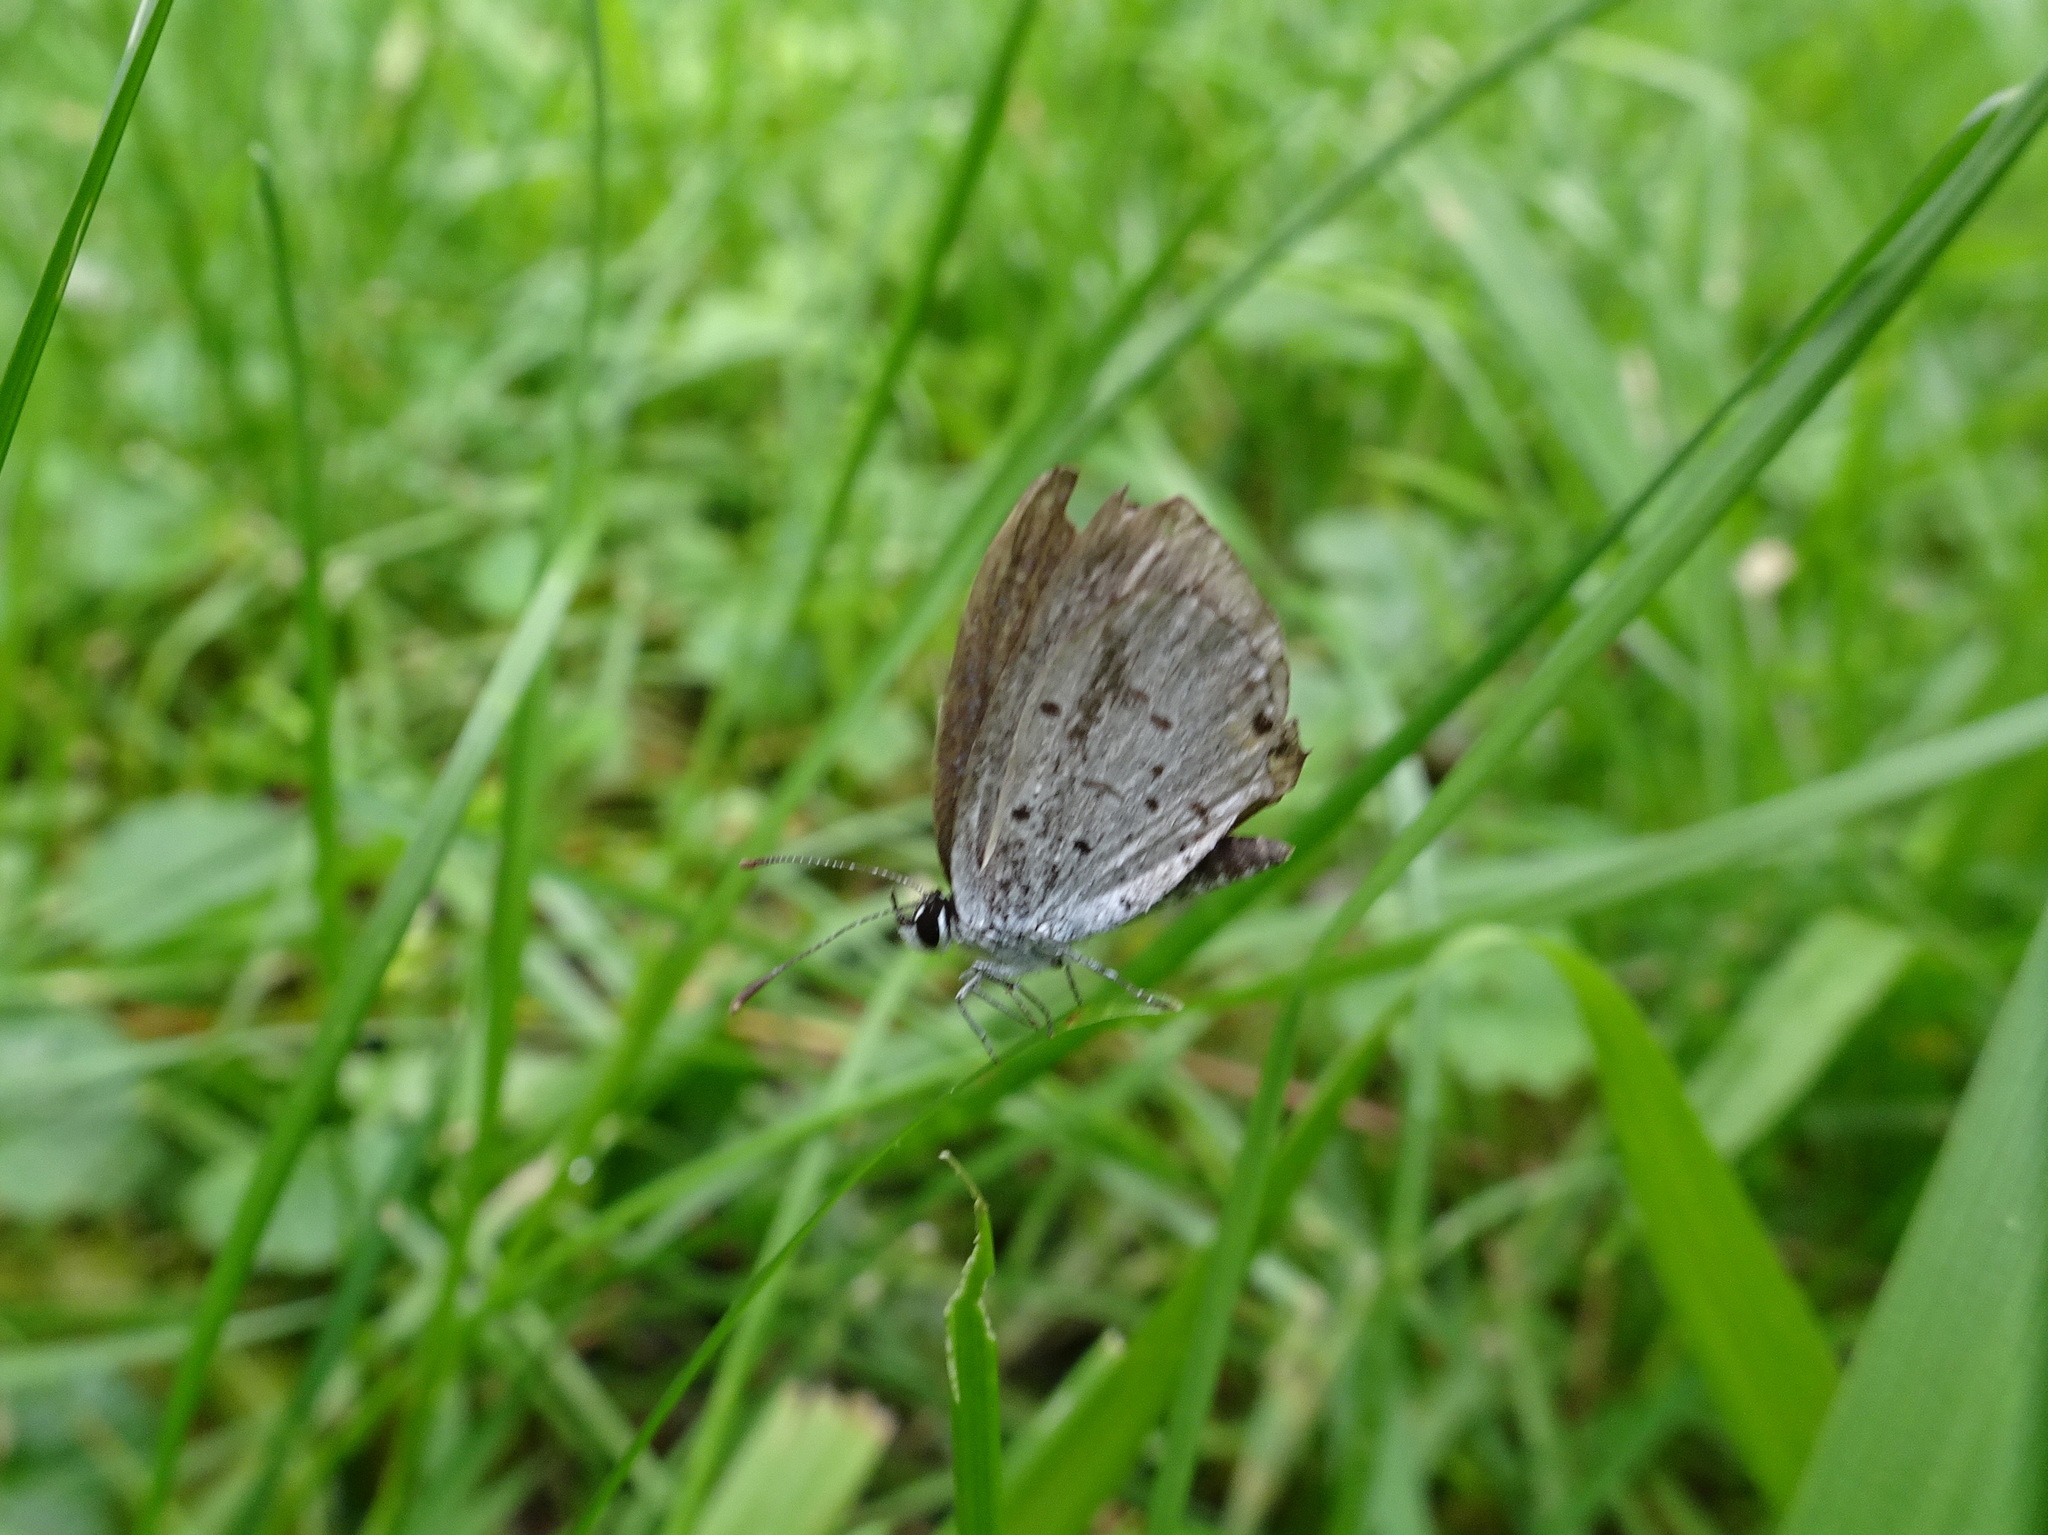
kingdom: Animalia
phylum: Arthropoda
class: Insecta
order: Lepidoptera
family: Lycaenidae
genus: Elkalyce
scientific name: Elkalyce comyntas
